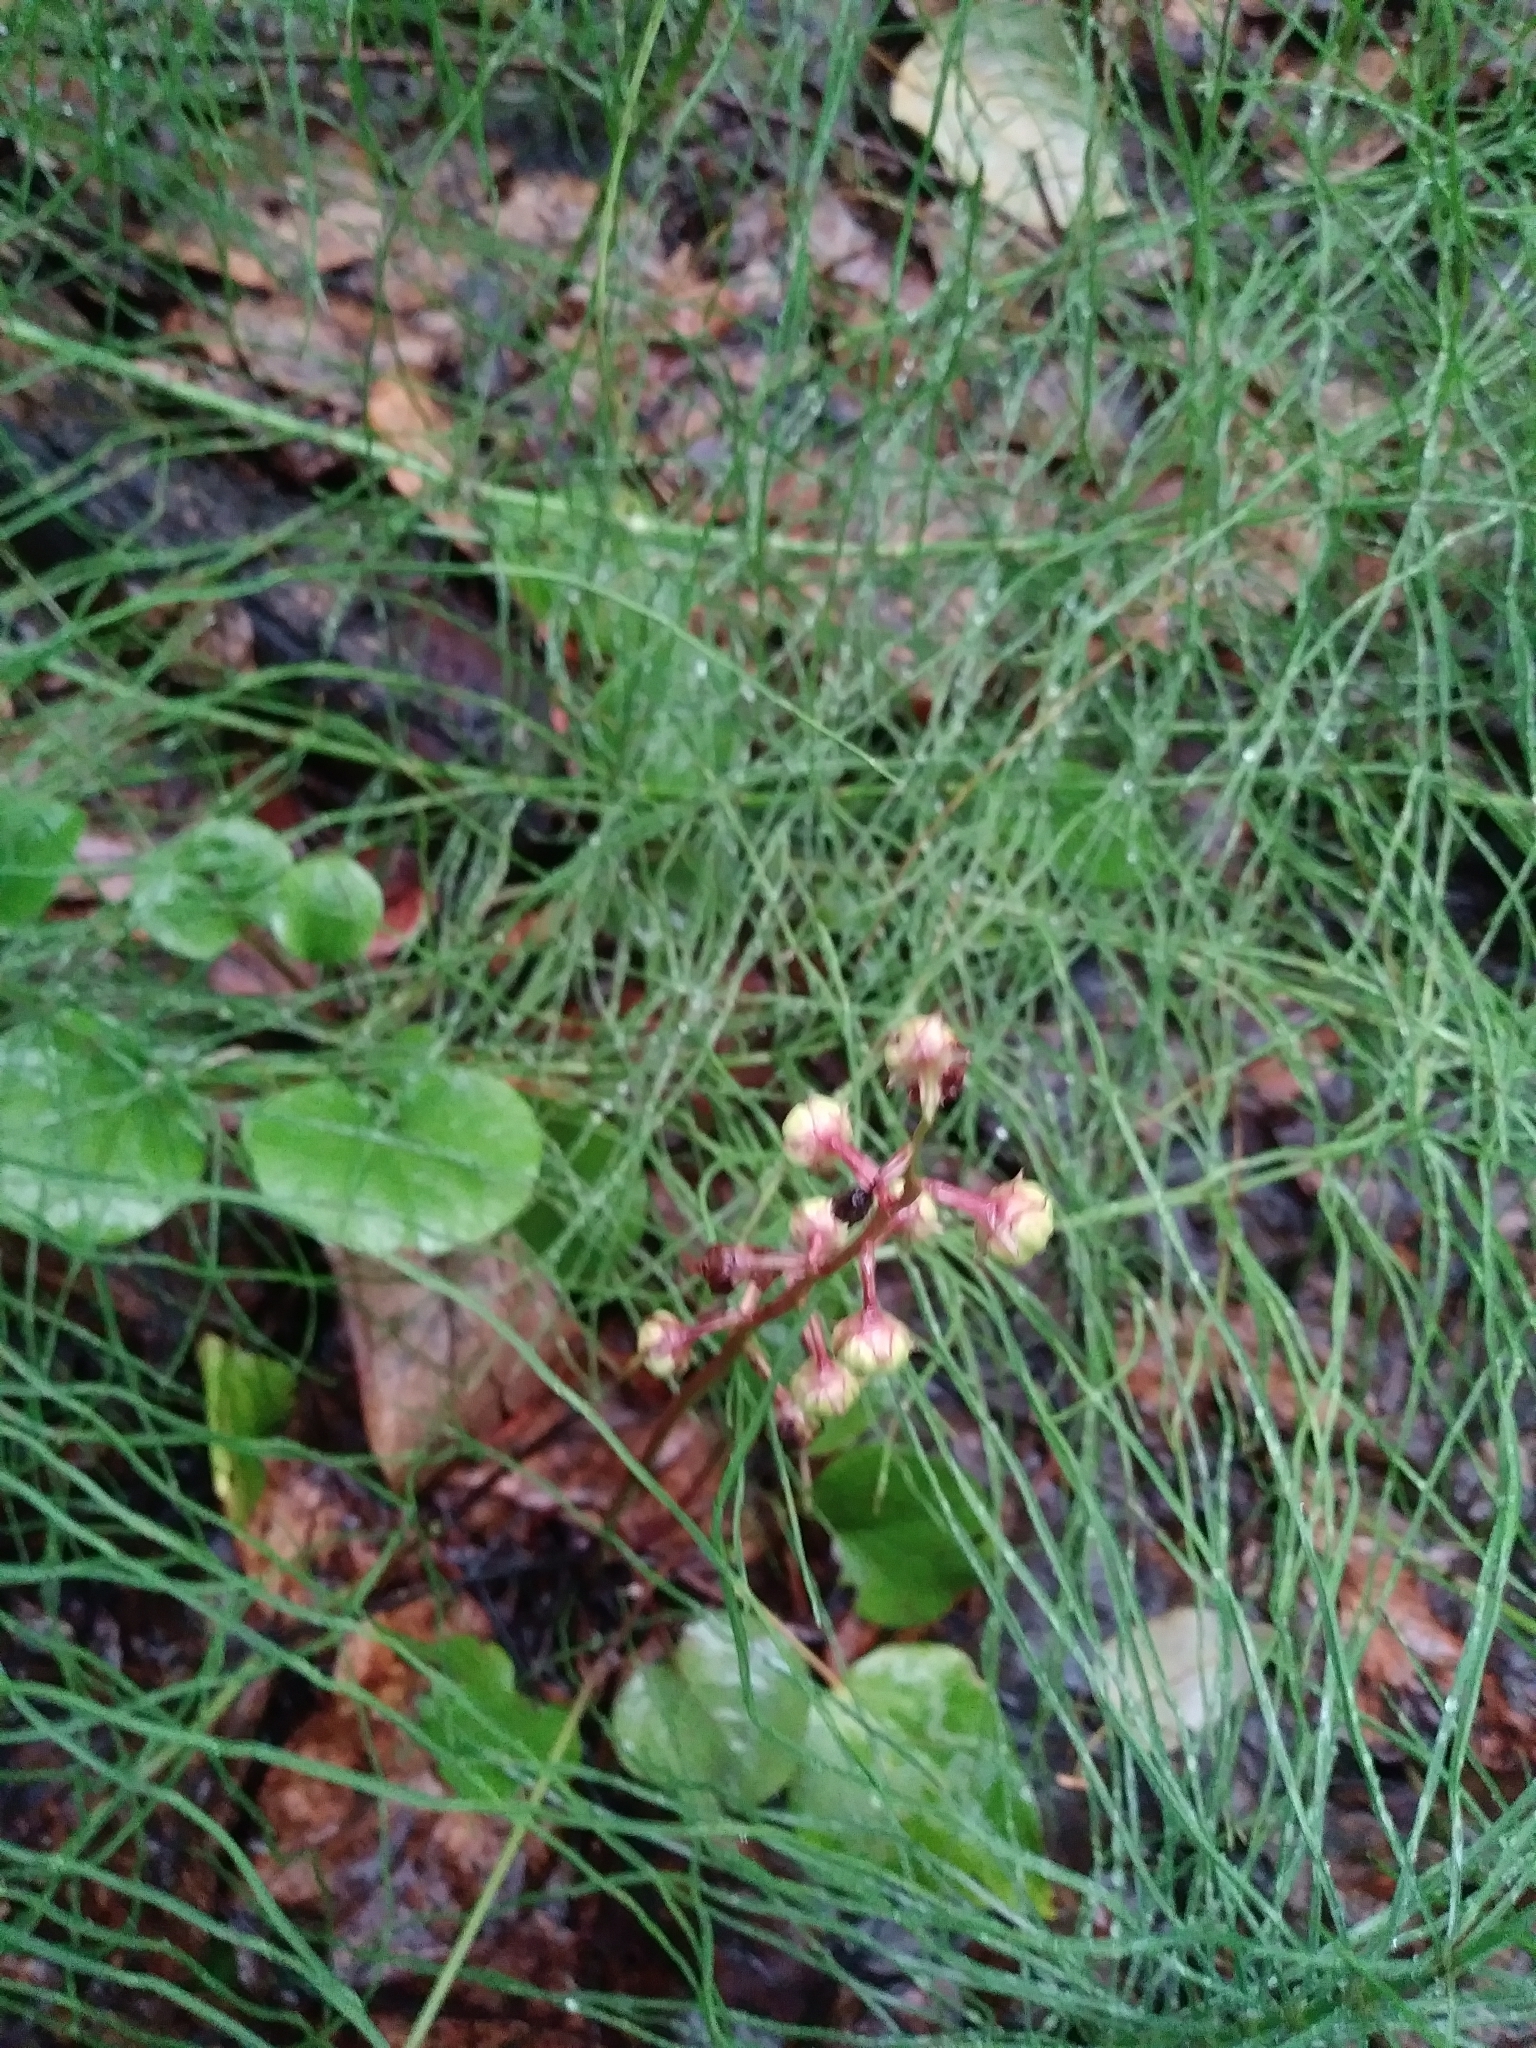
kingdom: Plantae
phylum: Tracheophyta
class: Magnoliopsida
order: Ericales
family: Ericaceae
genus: Pyrola
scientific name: Pyrola asarifolia
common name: Bog wintergreen
